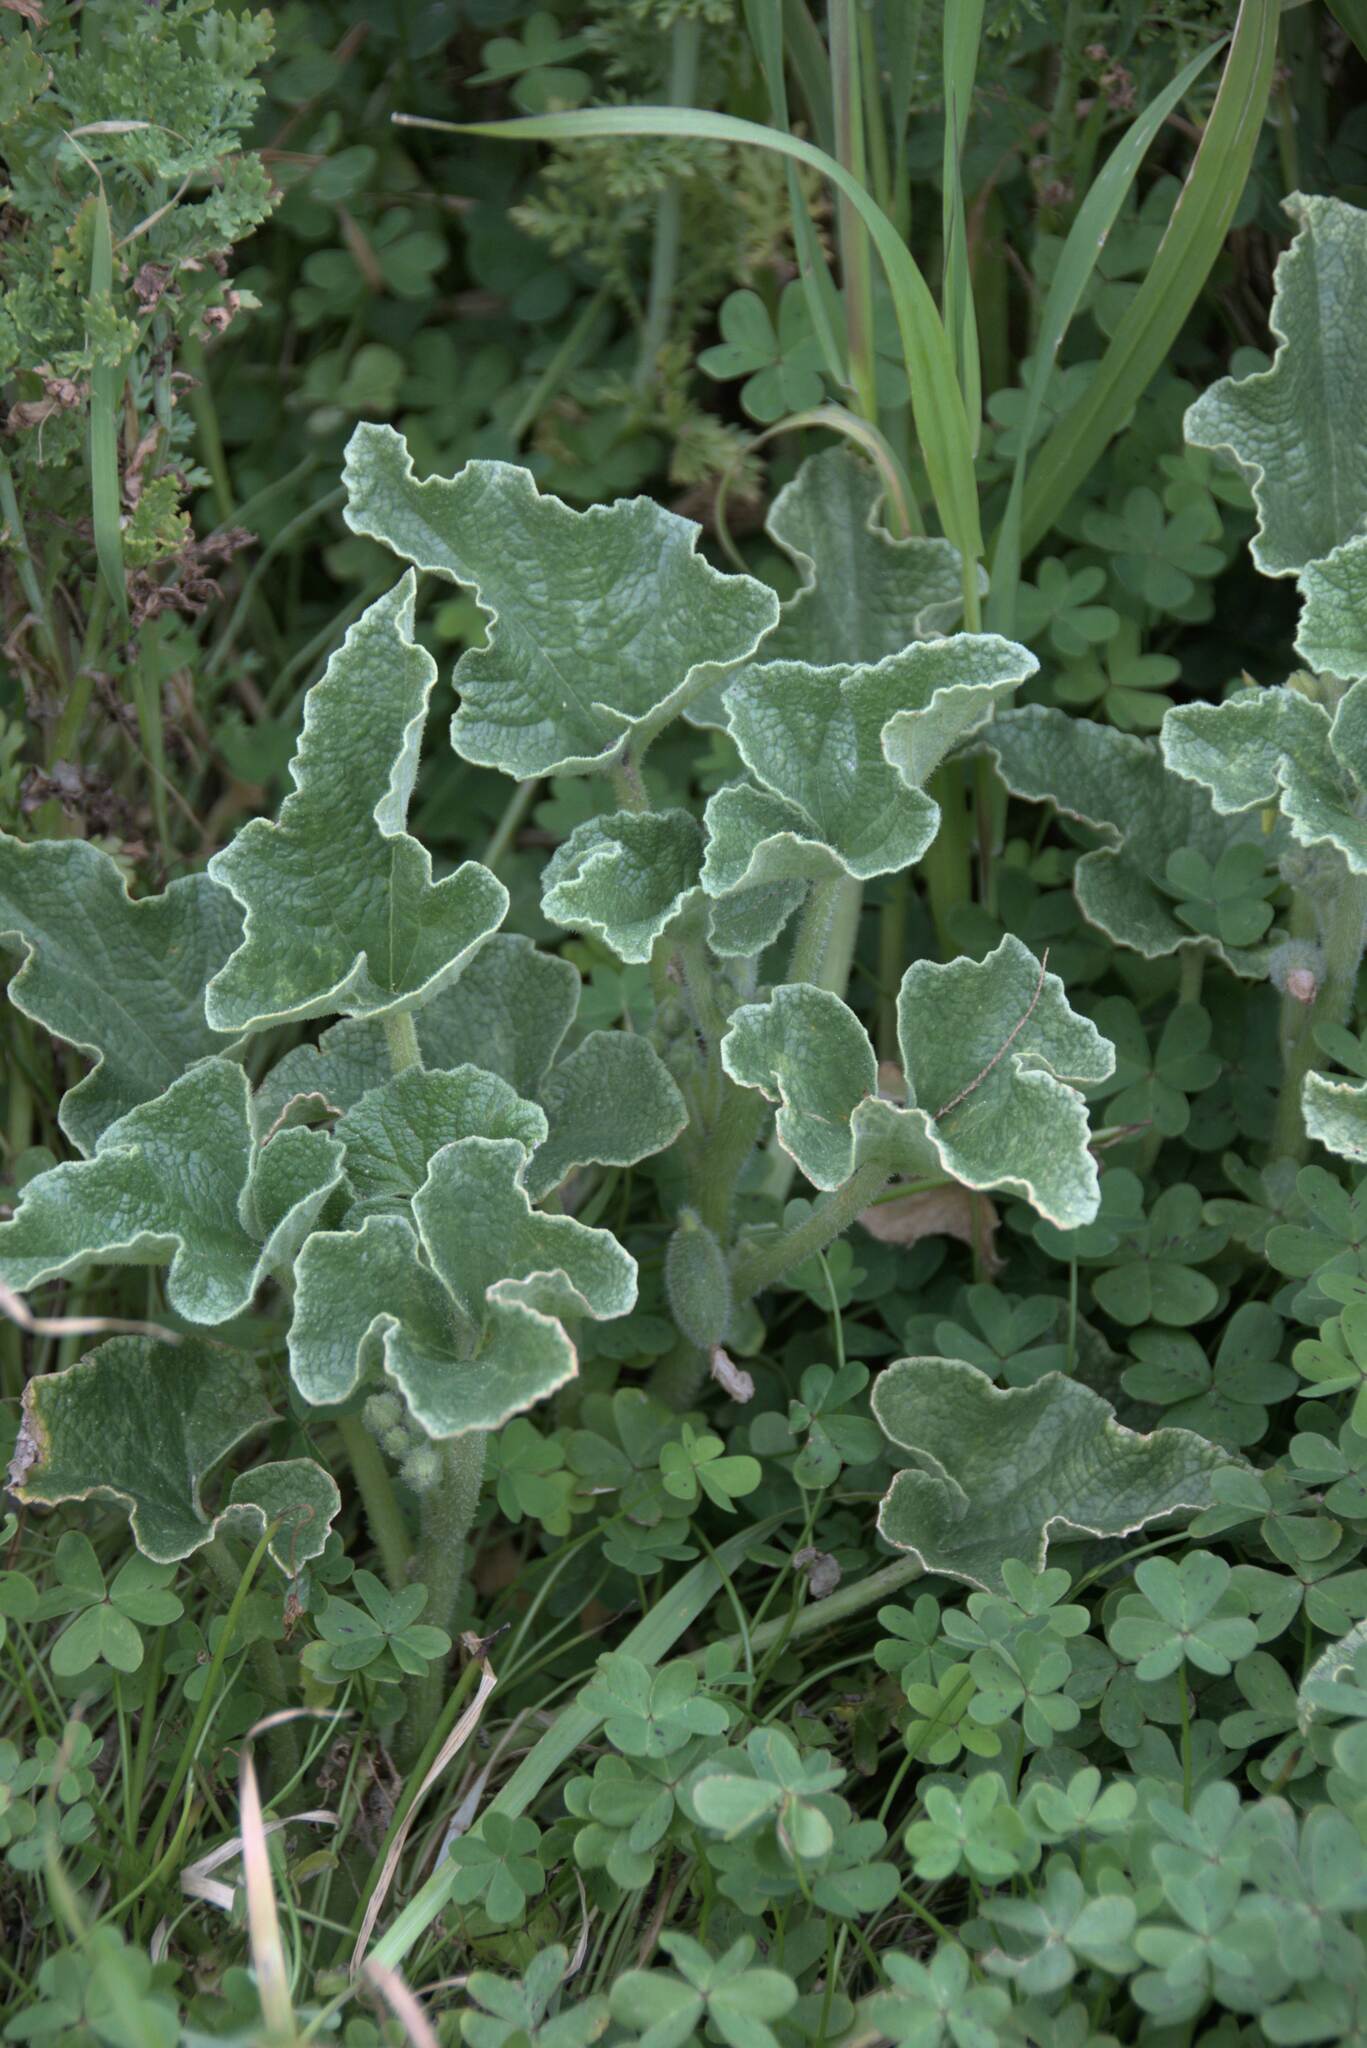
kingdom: Plantae
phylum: Tracheophyta
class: Magnoliopsida
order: Cucurbitales
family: Cucurbitaceae
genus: Ecballium
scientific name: Ecballium elaterium
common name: Squirting cucumber
